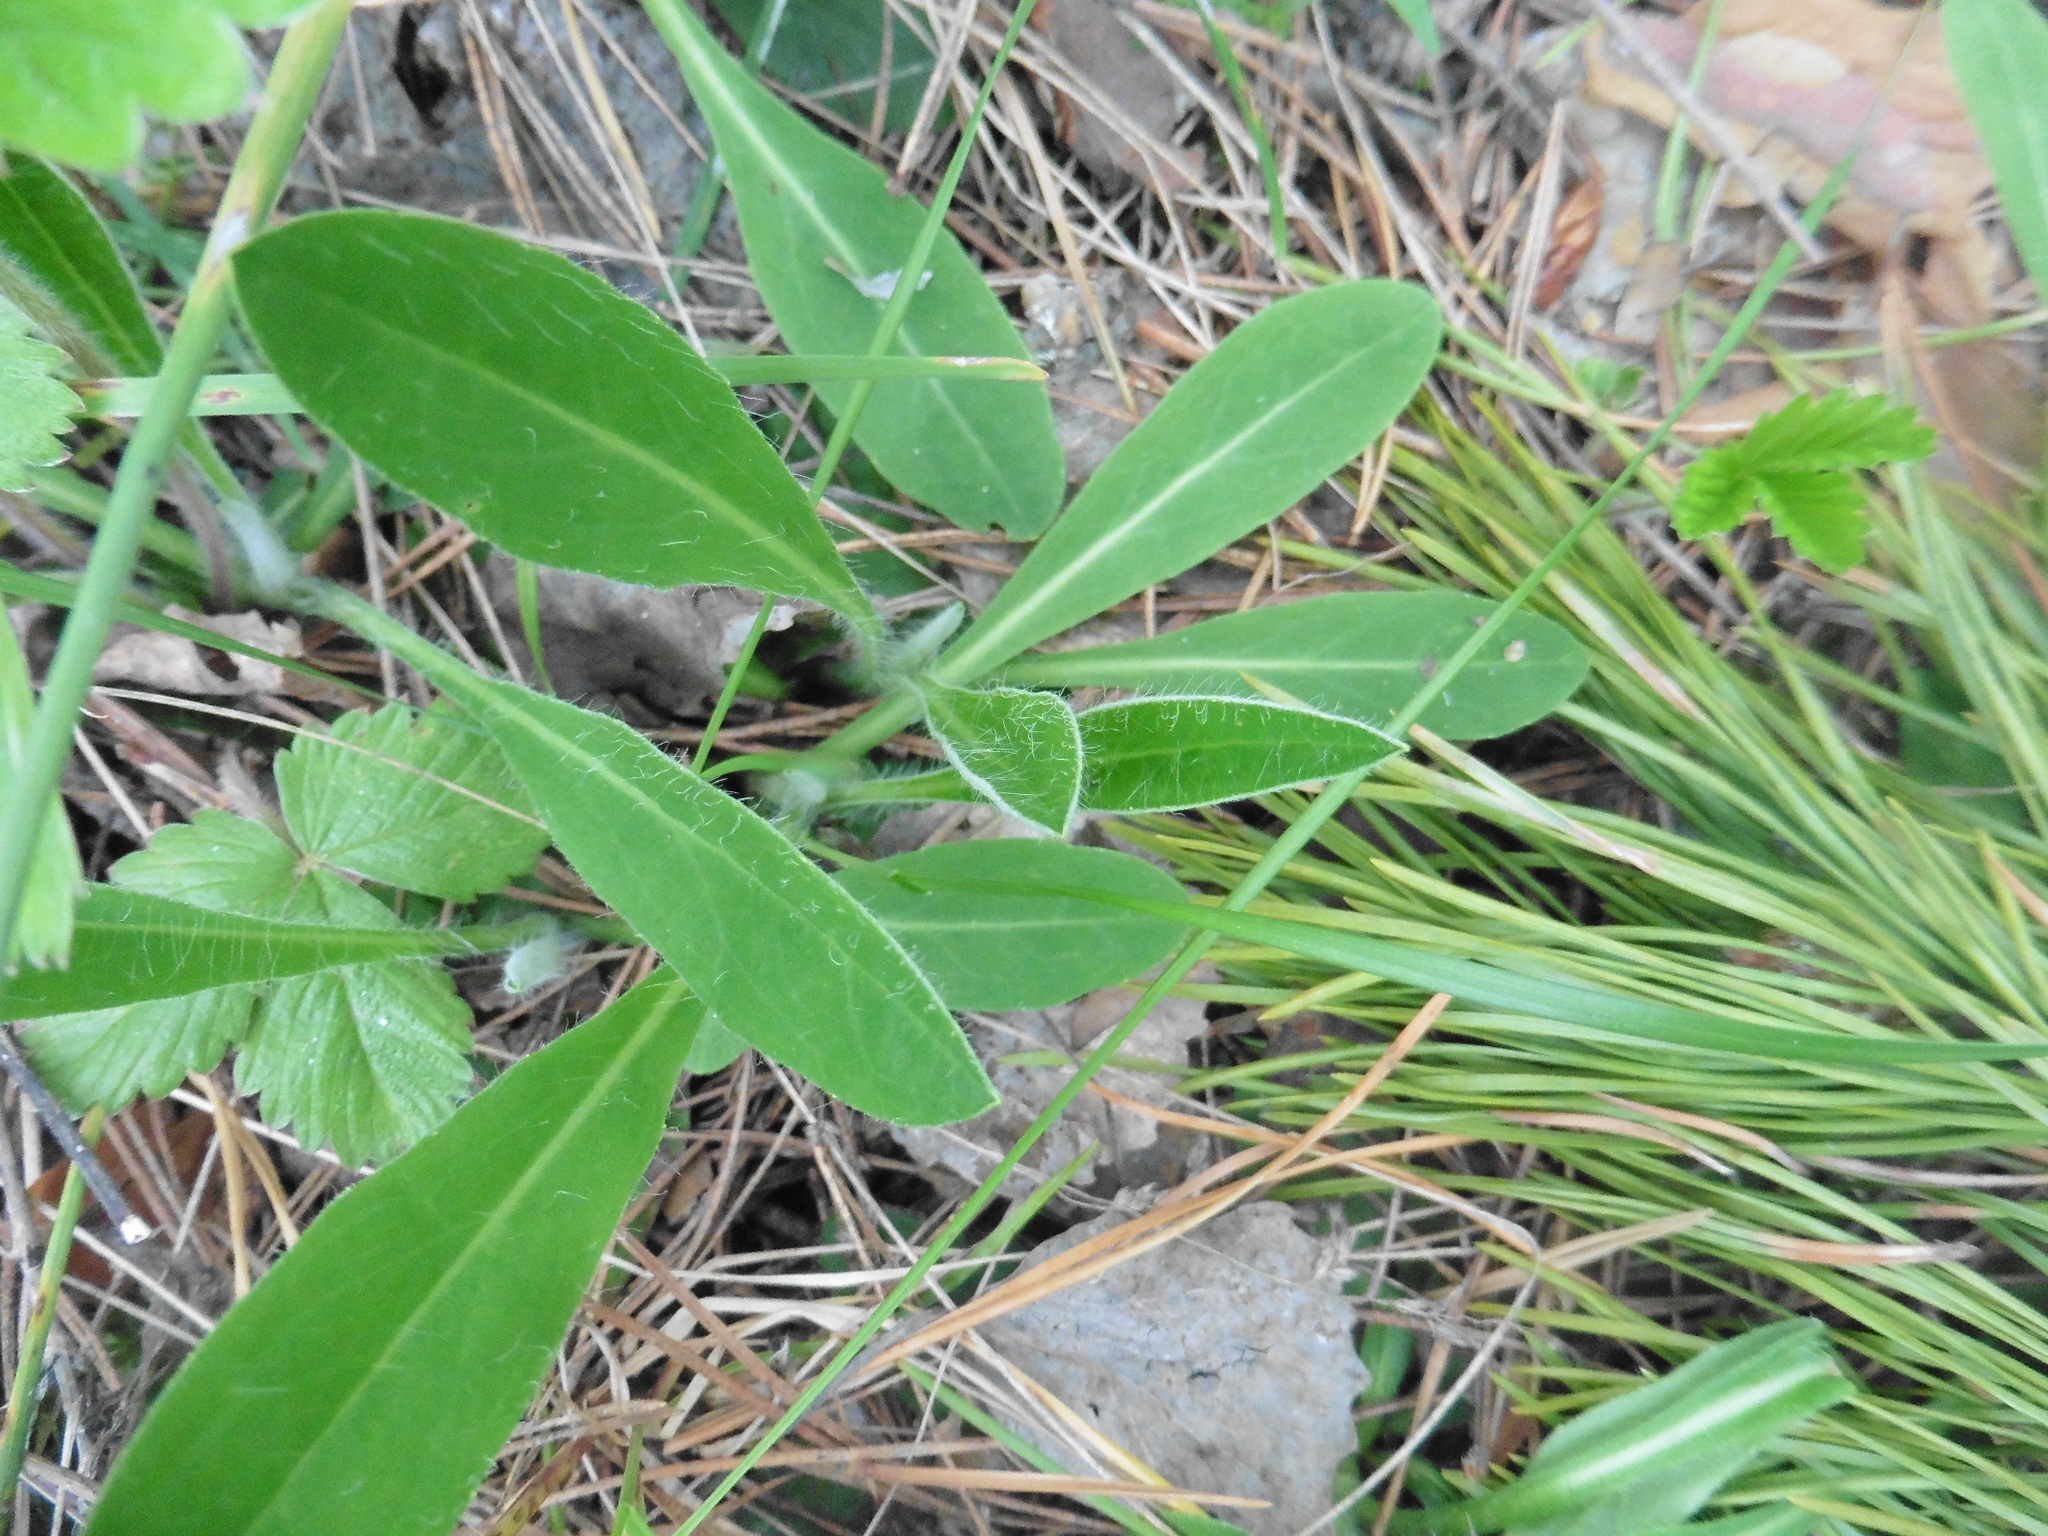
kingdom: Plantae
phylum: Tracheophyta
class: Magnoliopsida
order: Asterales
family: Asteraceae
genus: Pilosella
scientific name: Pilosella officinarum
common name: Mouse-ear hawkweed
